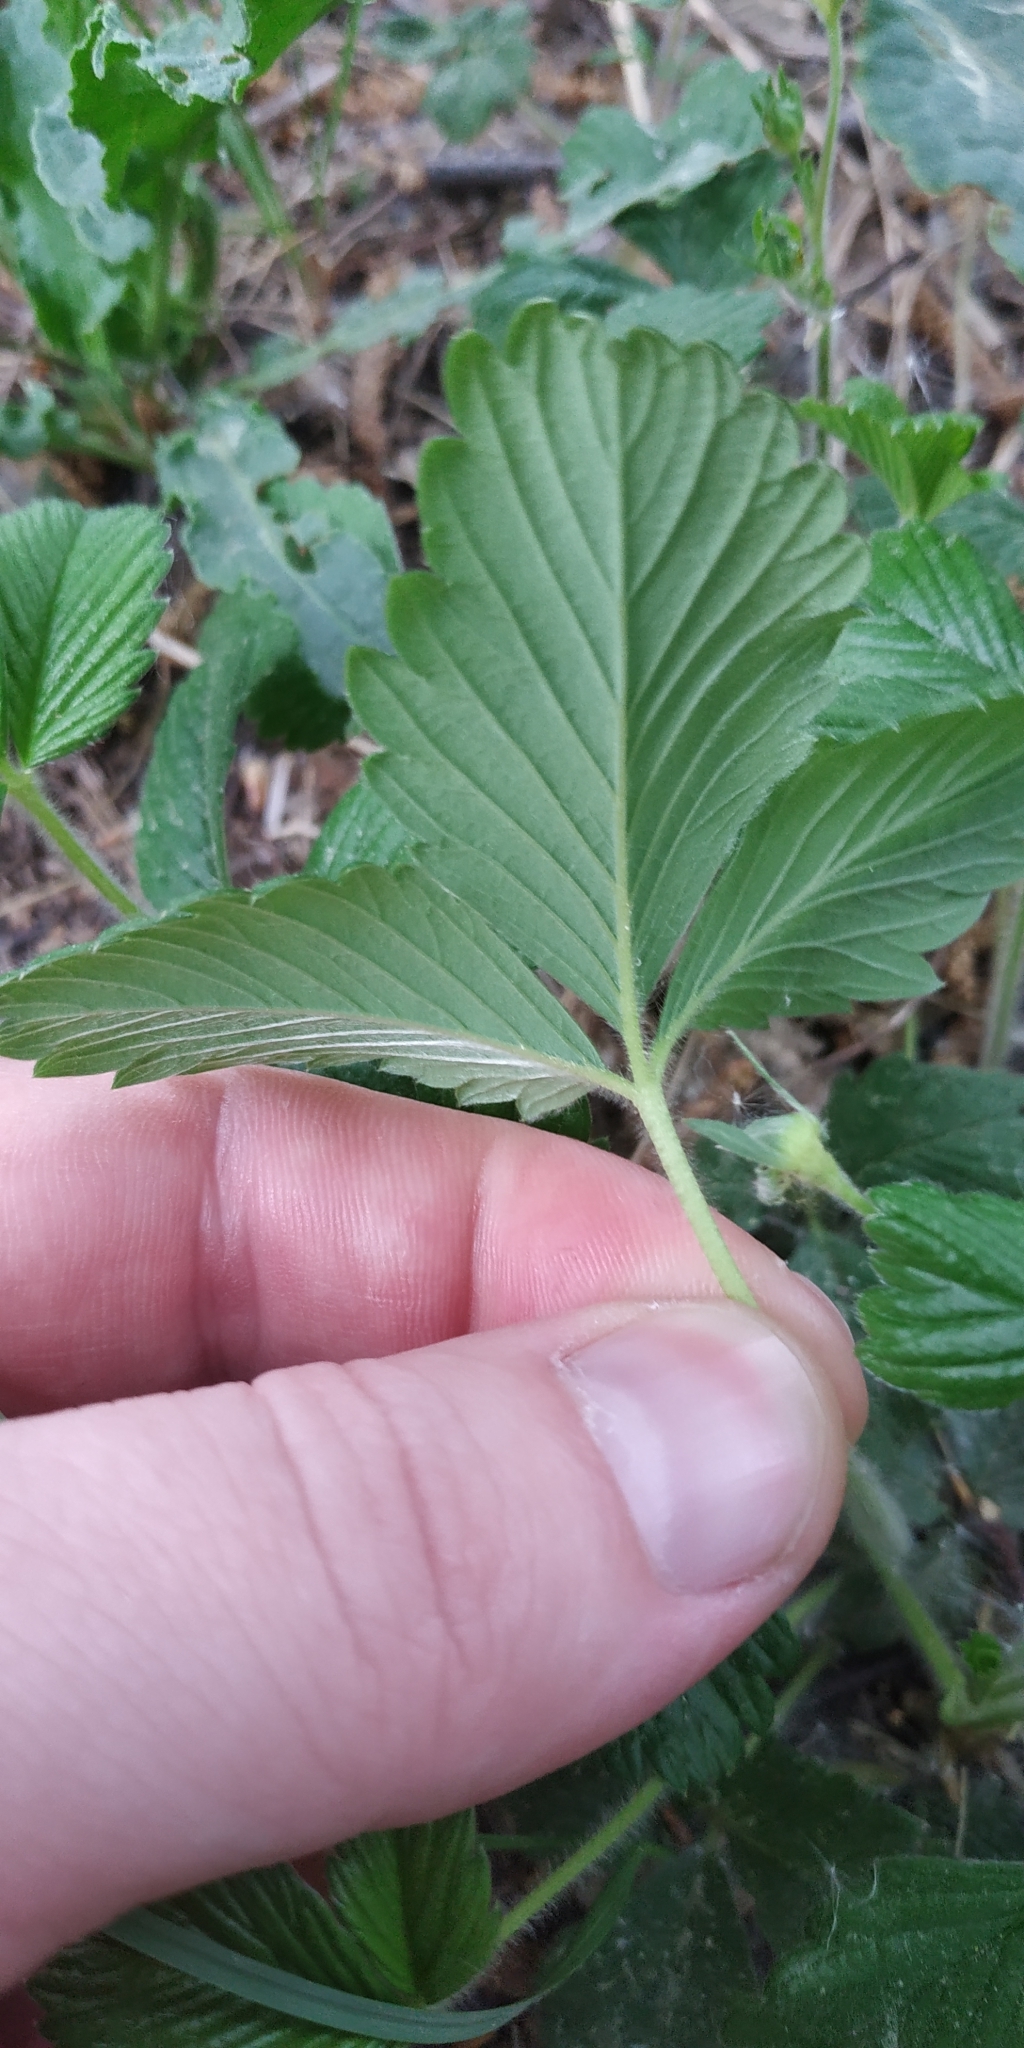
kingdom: Plantae
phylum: Tracheophyta
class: Magnoliopsida
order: Rosales
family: Rosaceae
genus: Fragaria
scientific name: Fragaria ananassa
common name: Garden strawberry
